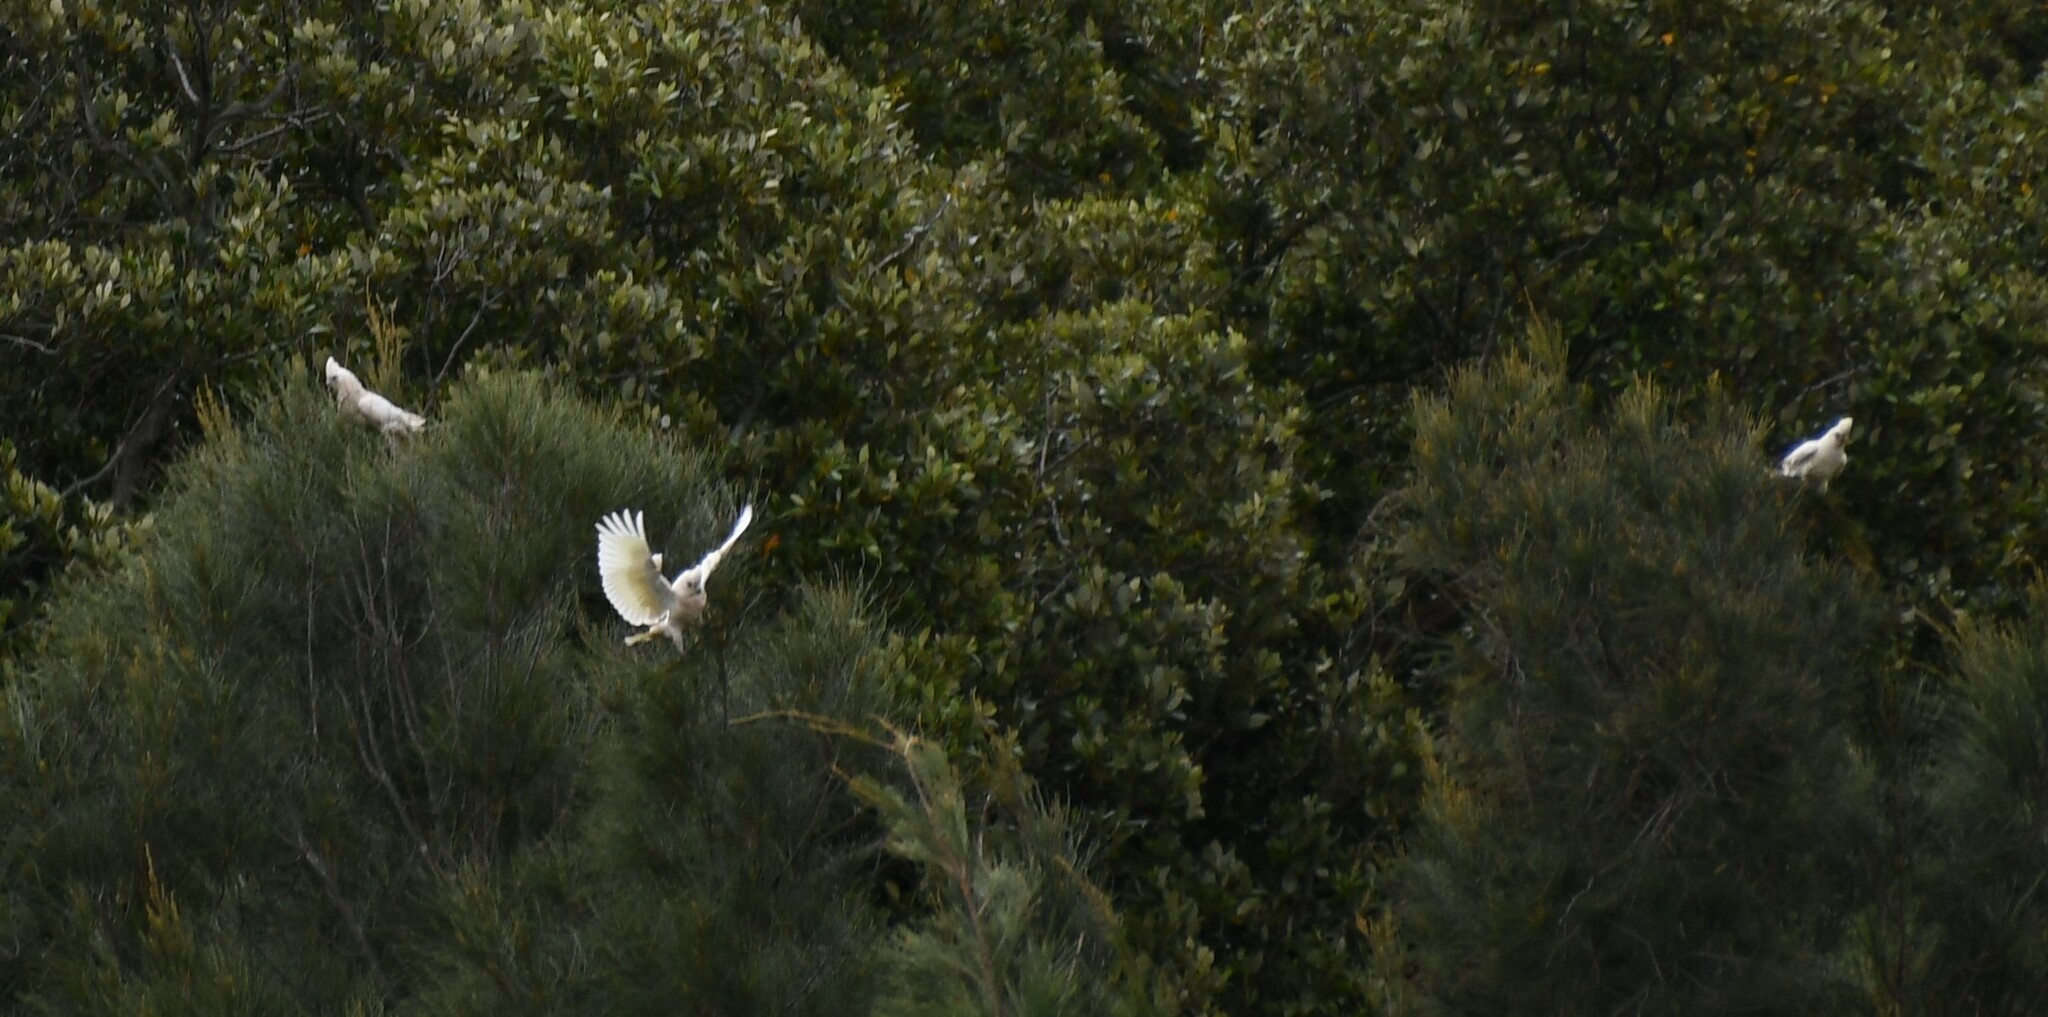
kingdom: Animalia
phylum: Chordata
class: Aves
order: Psittaciformes
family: Psittacidae
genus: Cacatua
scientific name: Cacatua sanguinea
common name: Little corella
